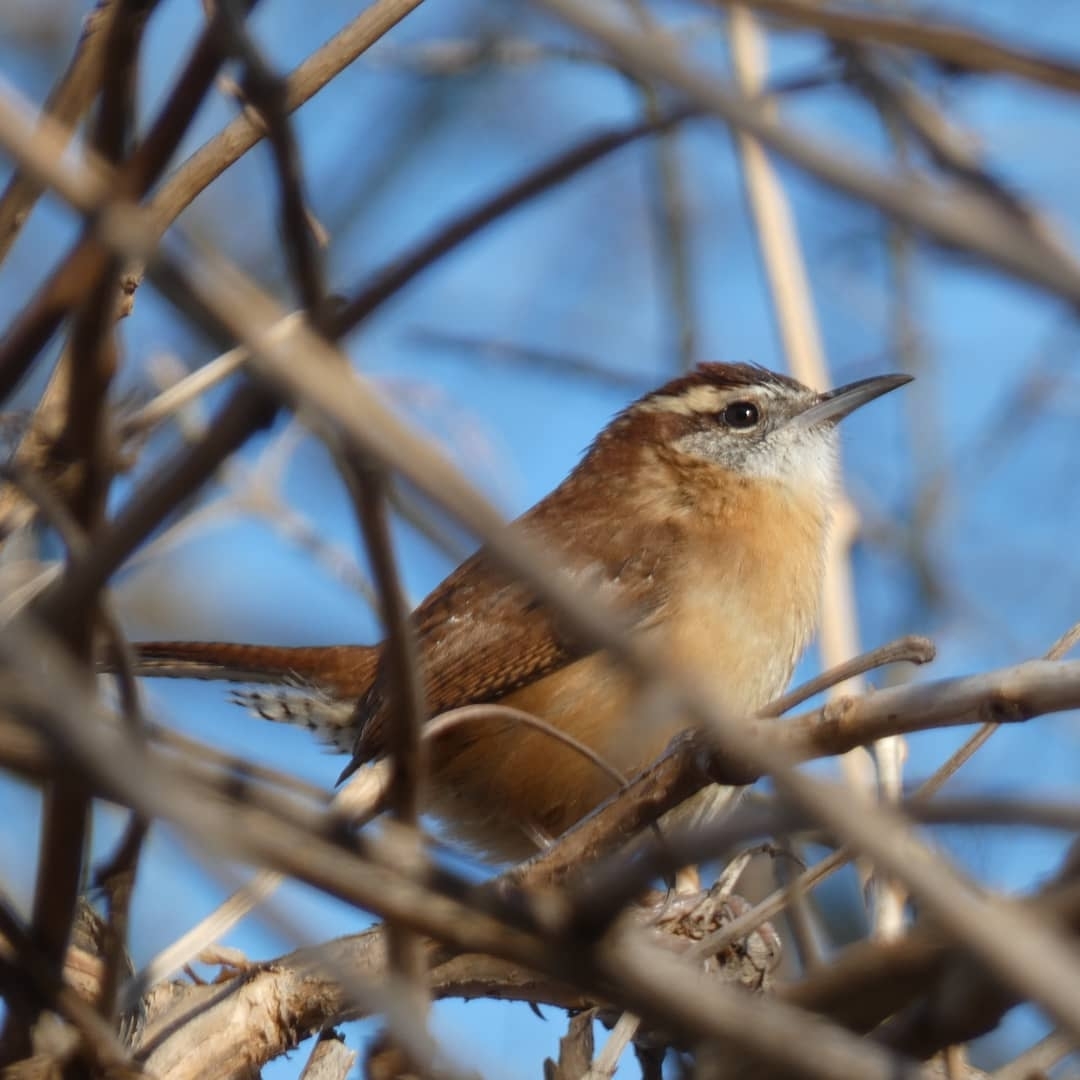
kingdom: Animalia
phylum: Chordata
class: Aves
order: Passeriformes
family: Troglodytidae
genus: Thryothorus
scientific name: Thryothorus ludovicianus
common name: Carolina wren
